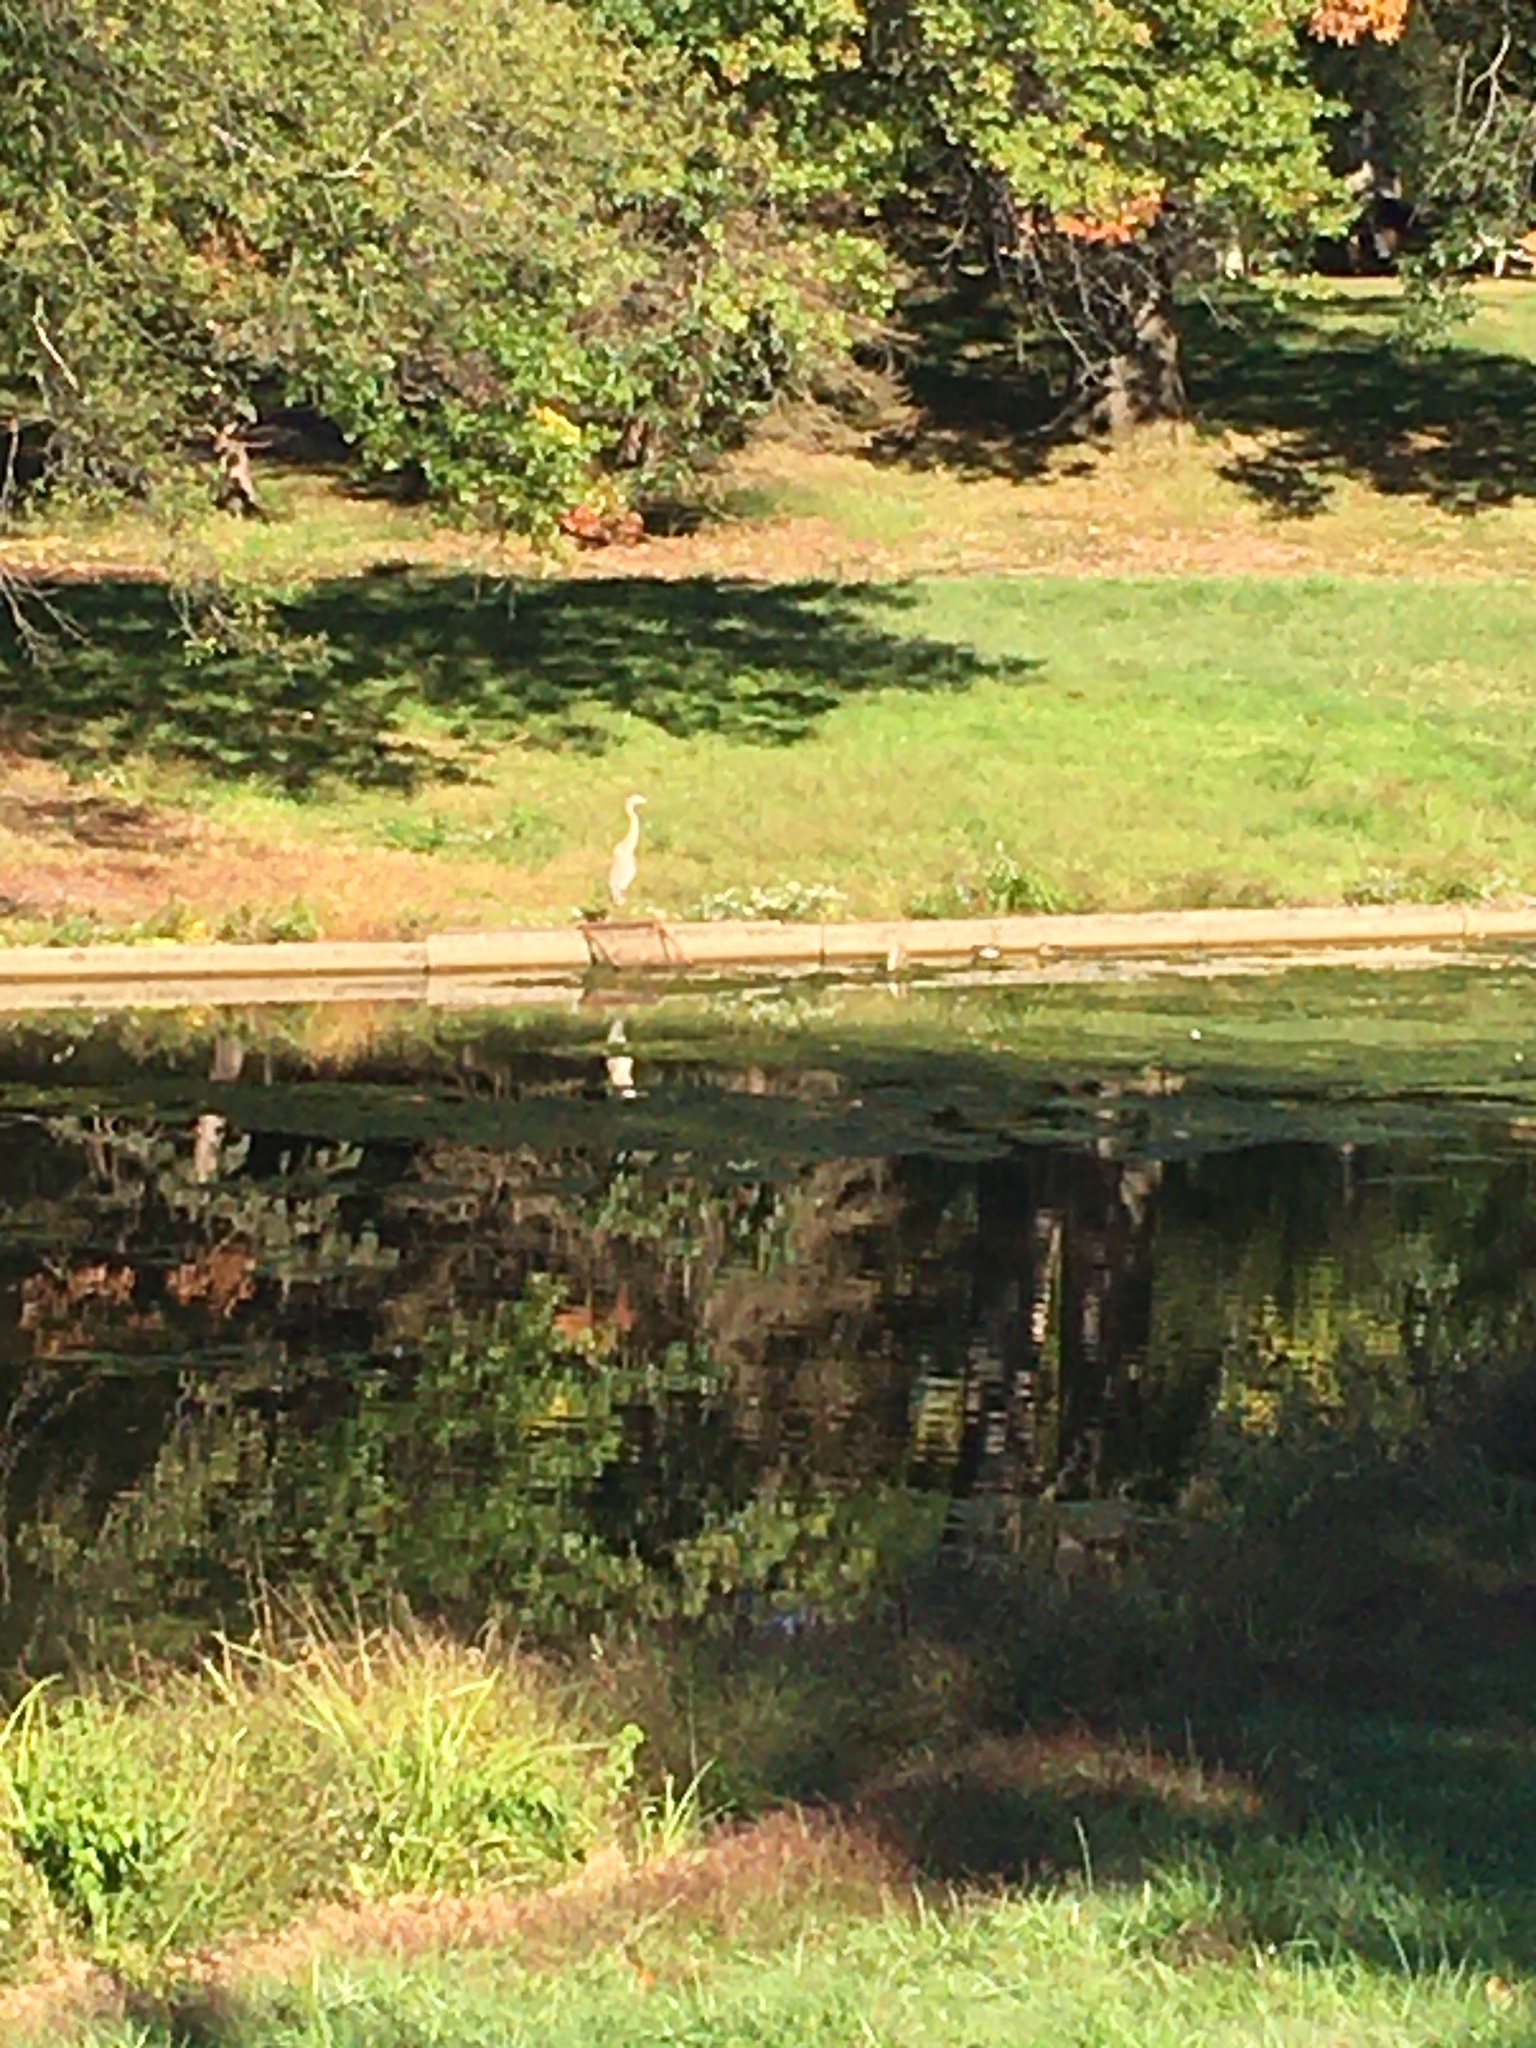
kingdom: Animalia
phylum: Chordata
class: Aves
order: Pelecaniformes
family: Ardeidae
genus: Ardea
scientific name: Ardea herodias
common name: Great blue heron
